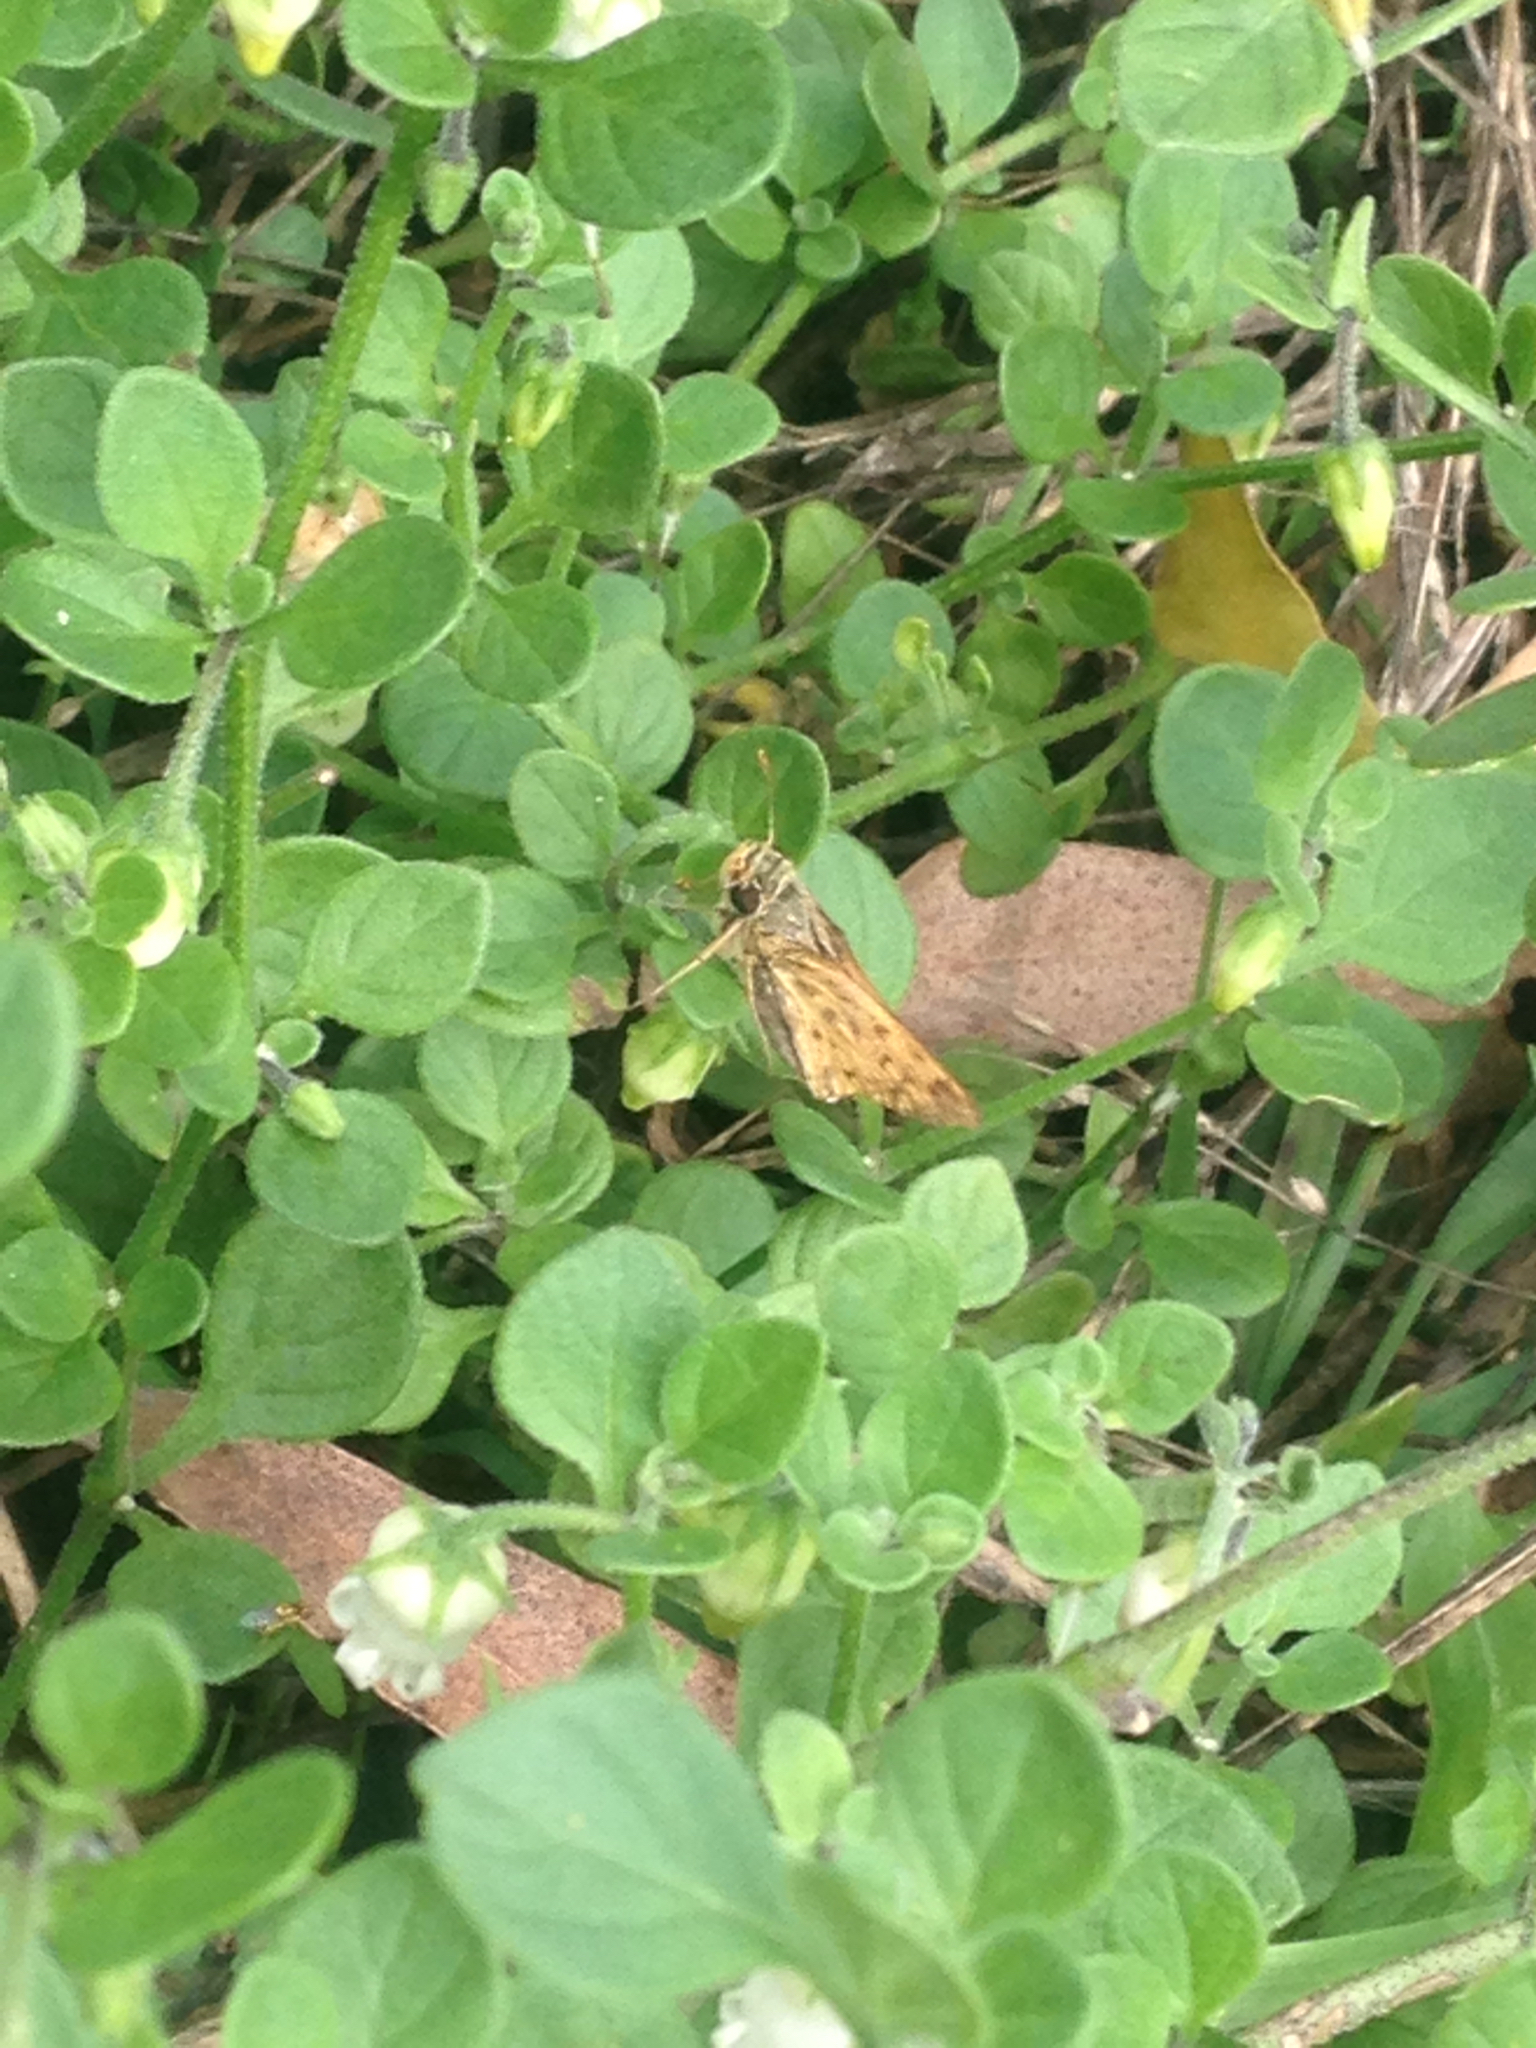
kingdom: Animalia
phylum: Arthropoda
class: Insecta
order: Lepidoptera
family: Hesperiidae
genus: Hylephila
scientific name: Hylephila phyleus
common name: Fiery skipper
